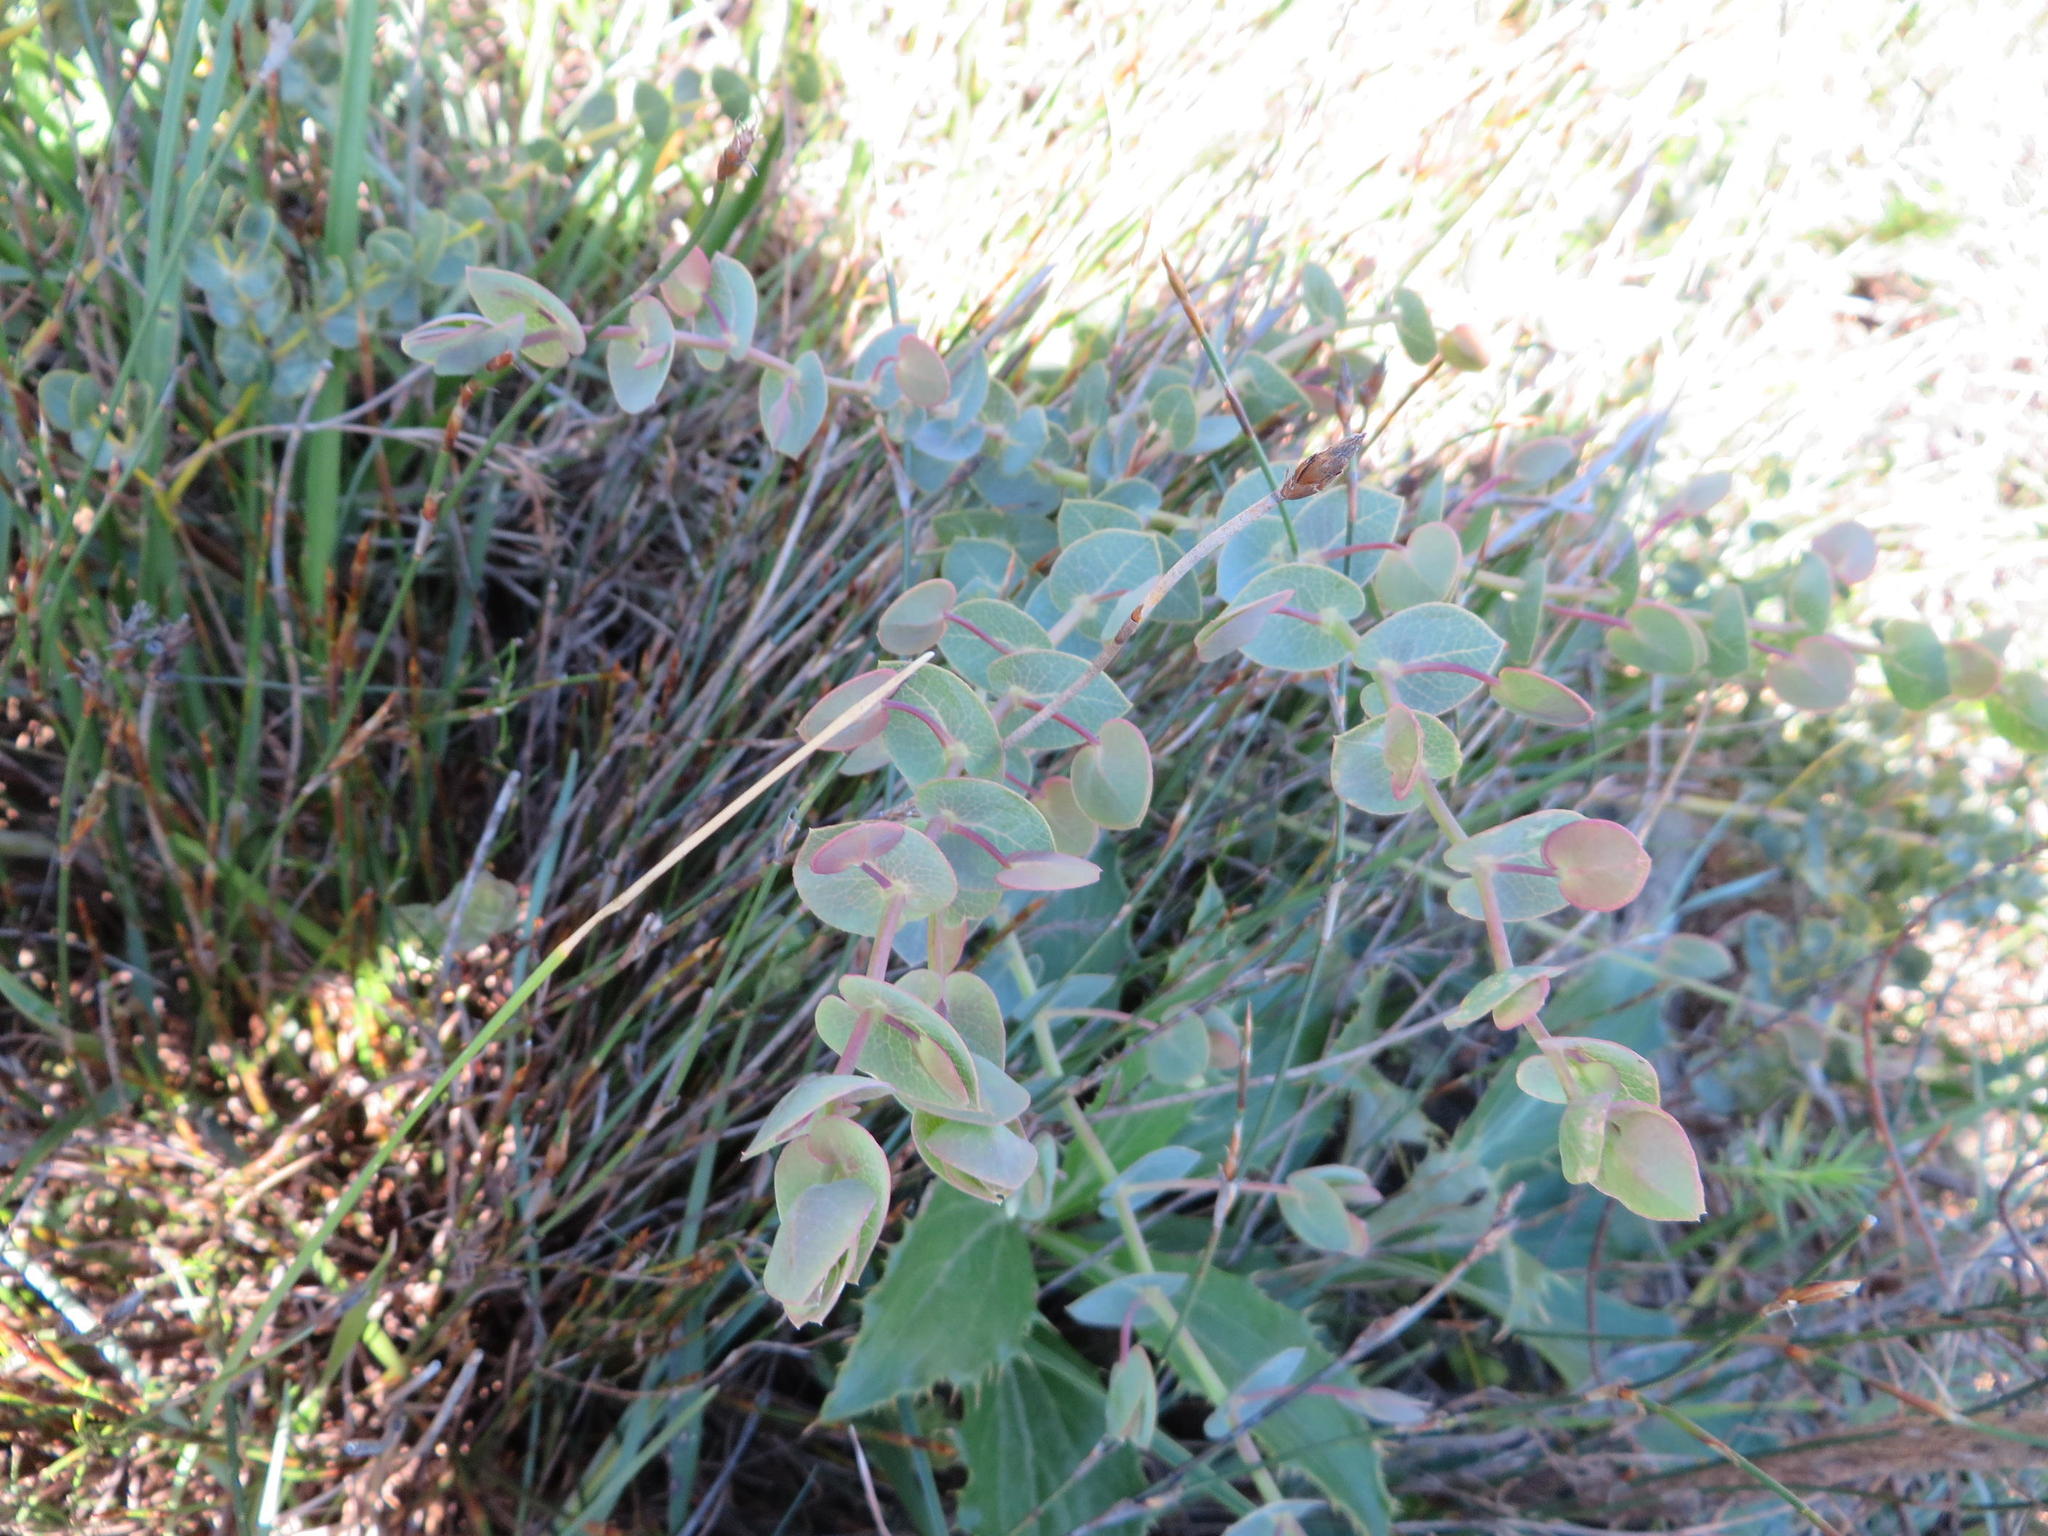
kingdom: Plantae
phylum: Tracheophyta
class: Magnoliopsida
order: Fabales
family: Fabaceae
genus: Rafnia
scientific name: Rafnia acuminata
